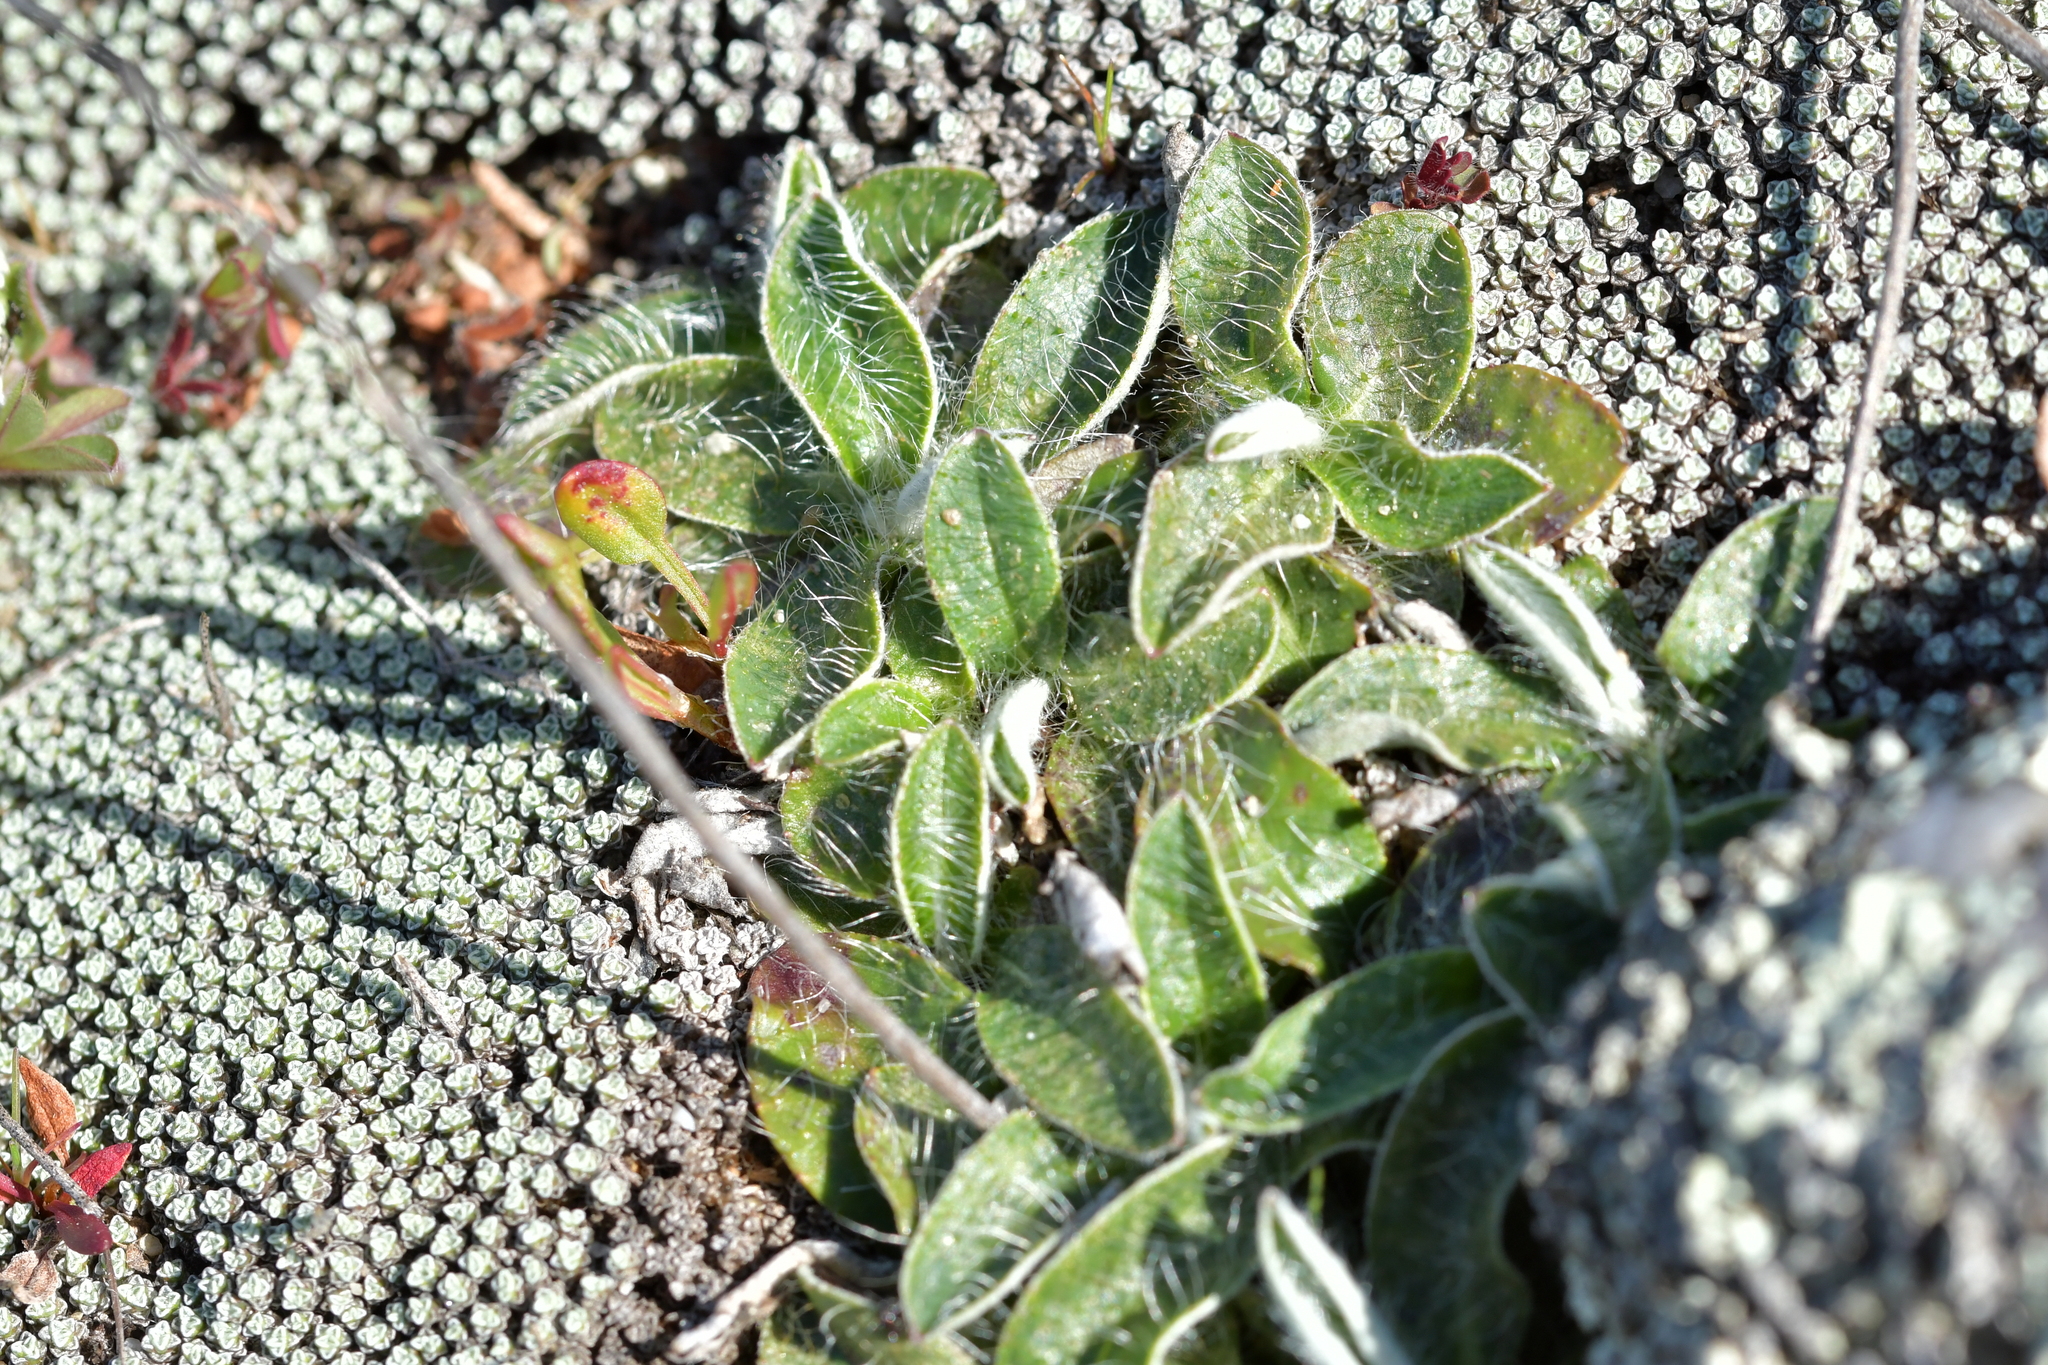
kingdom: Plantae
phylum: Tracheophyta
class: Magnoliopsida
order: Asterales
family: Asteraceae
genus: Pilosella
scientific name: Pilosella officinarum
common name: Mouse-ear hawkweed
